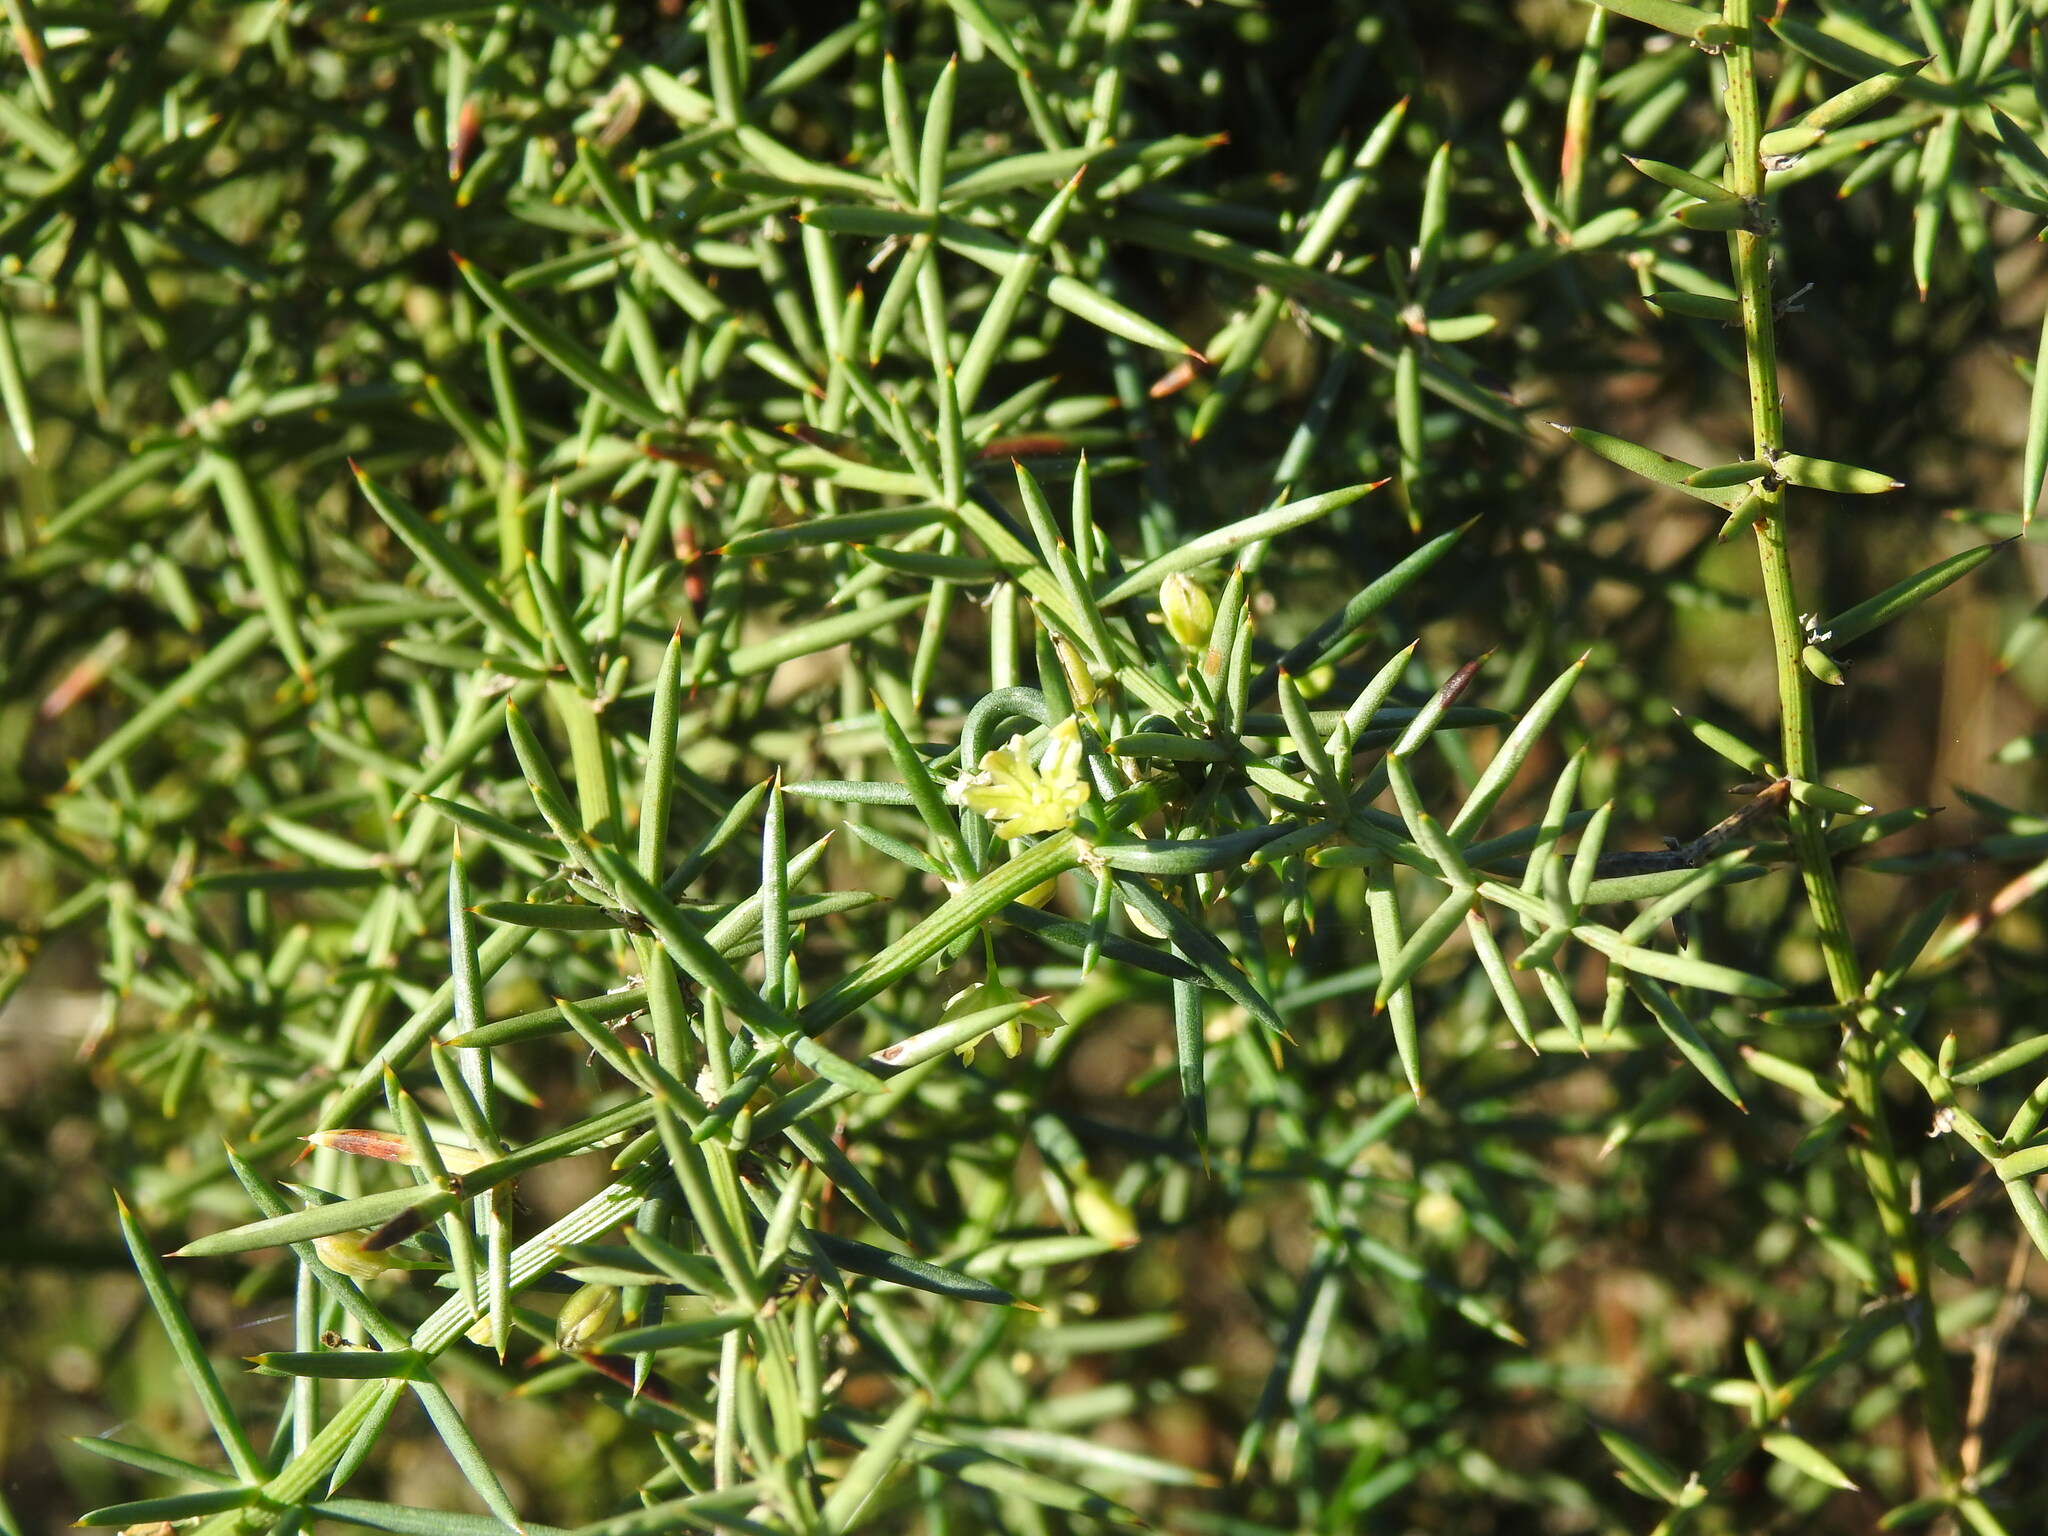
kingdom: Plantae
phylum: Tracheophyta
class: Liliopsida
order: Asparagales
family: Asparagaceae
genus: Asparagus
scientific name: Asparagus aphyllus
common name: Mediterranean asparagus
